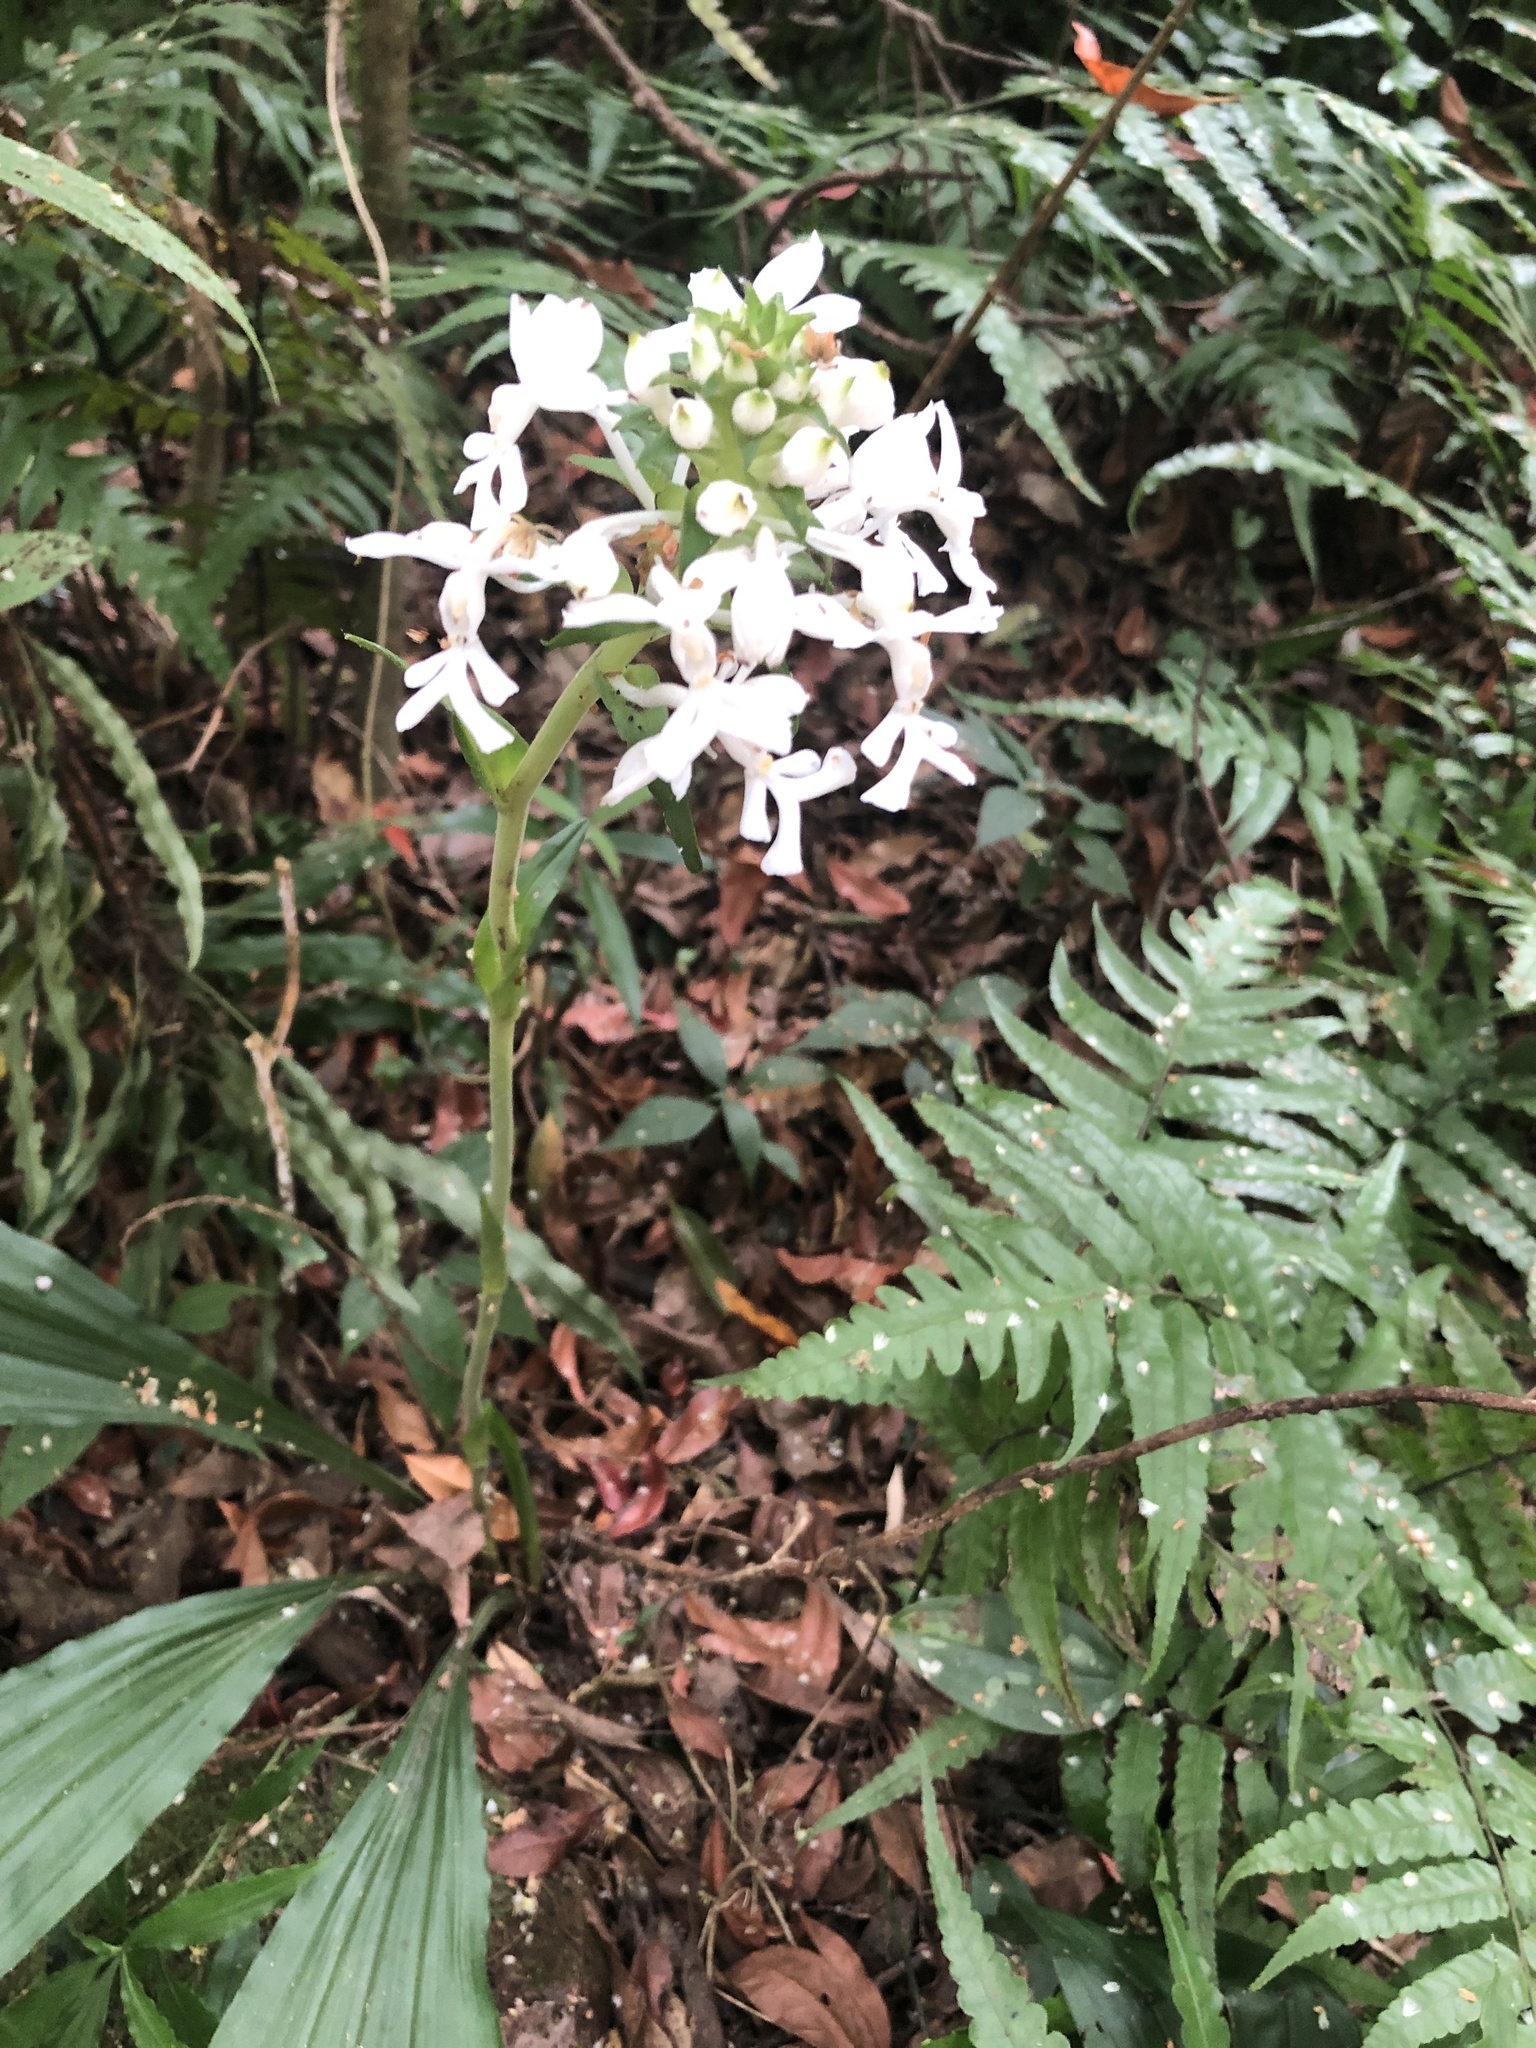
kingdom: Plantae
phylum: Tracheophyta
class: Liliopsida
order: Asparagales
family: Orchidaceae
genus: Calanthe
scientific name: Calanthe triplicata
